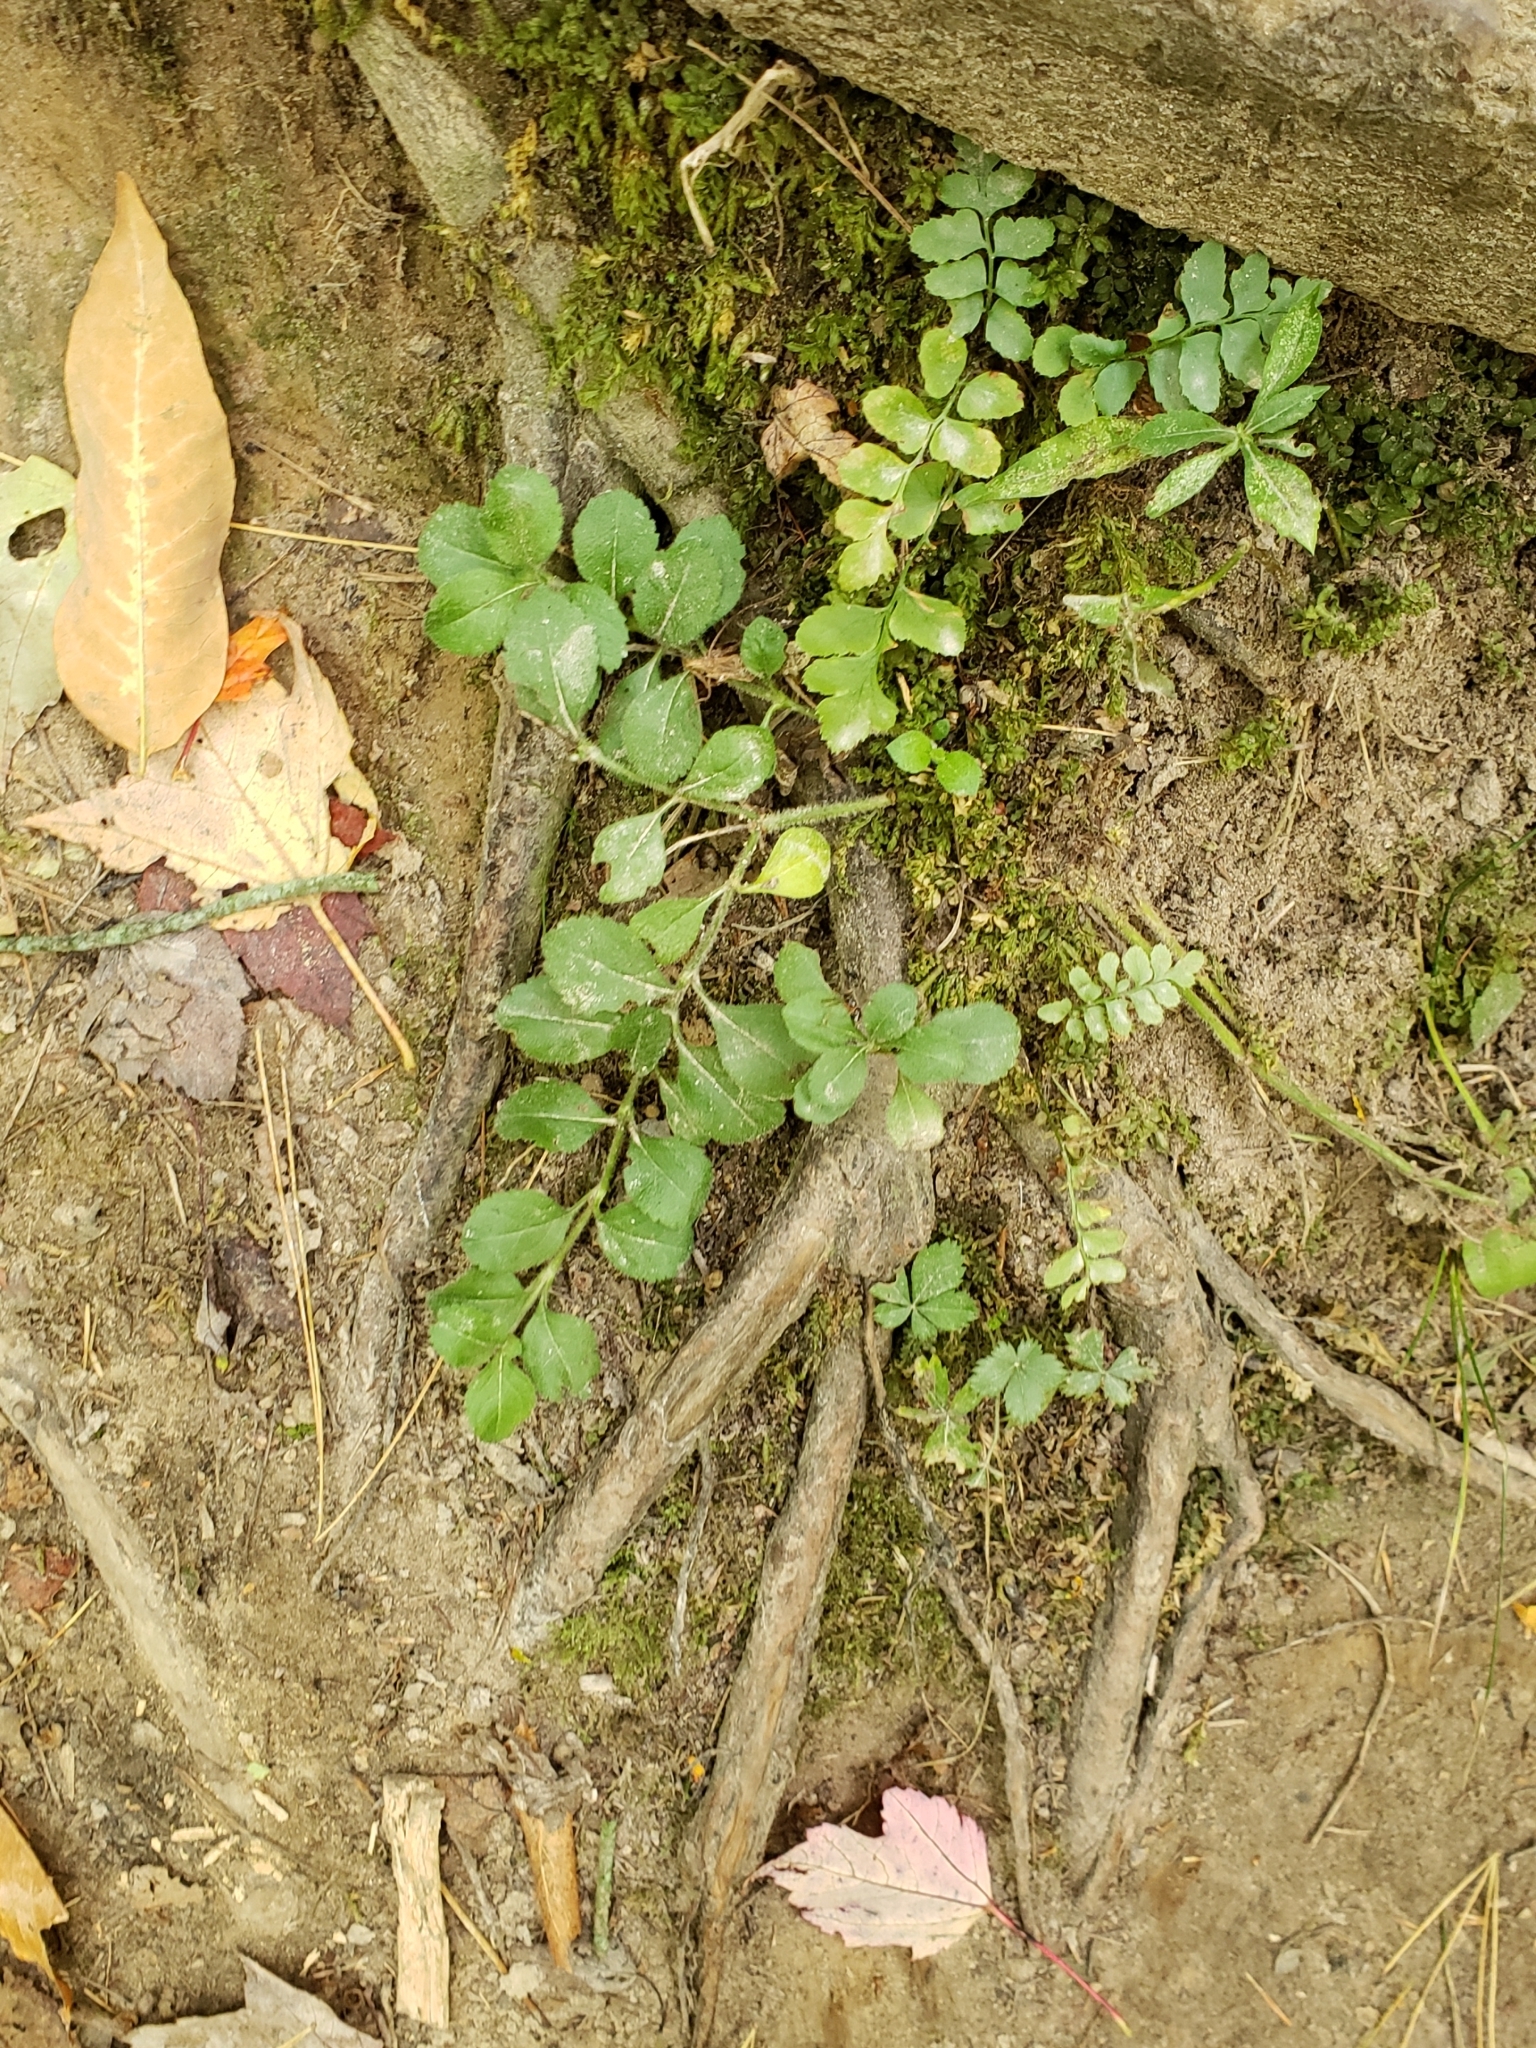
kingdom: Plantae
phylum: Tracheophyta
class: Magnoliopsida
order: Lamiales
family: Plantaginaceae
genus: Veronica
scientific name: Veronica officinalis
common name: Common speedwell
